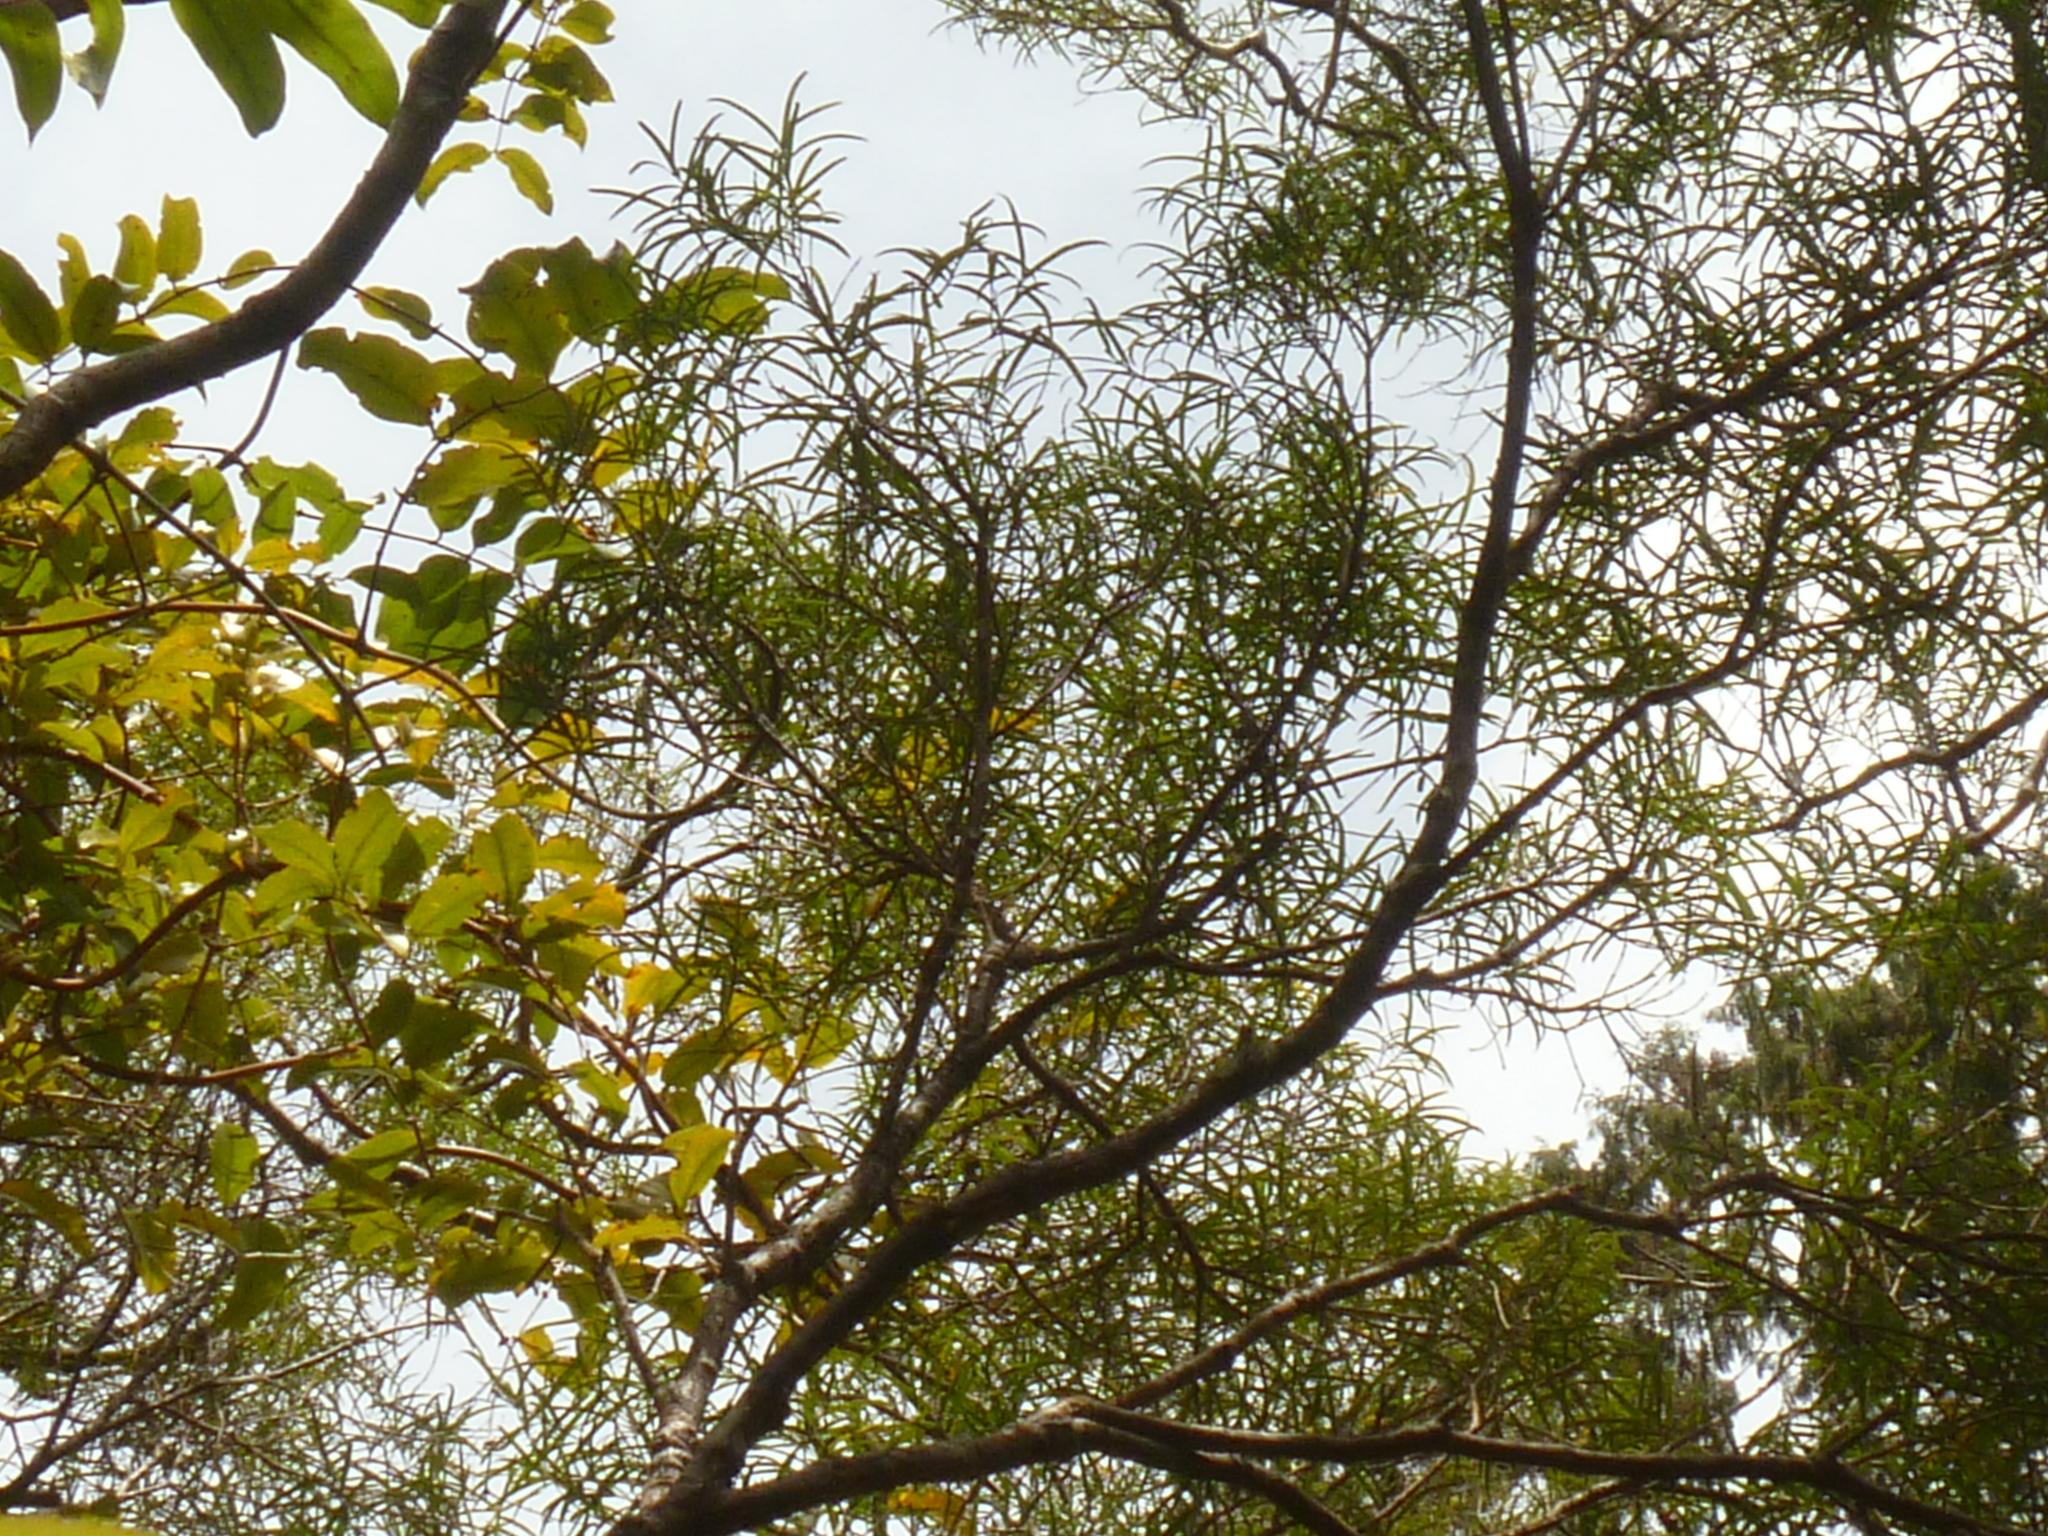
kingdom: Plantae
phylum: Tracheophyta
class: Magnoliopsida
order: Lamiales
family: Oleaceae
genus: Nestegis
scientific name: Nestegis montana
